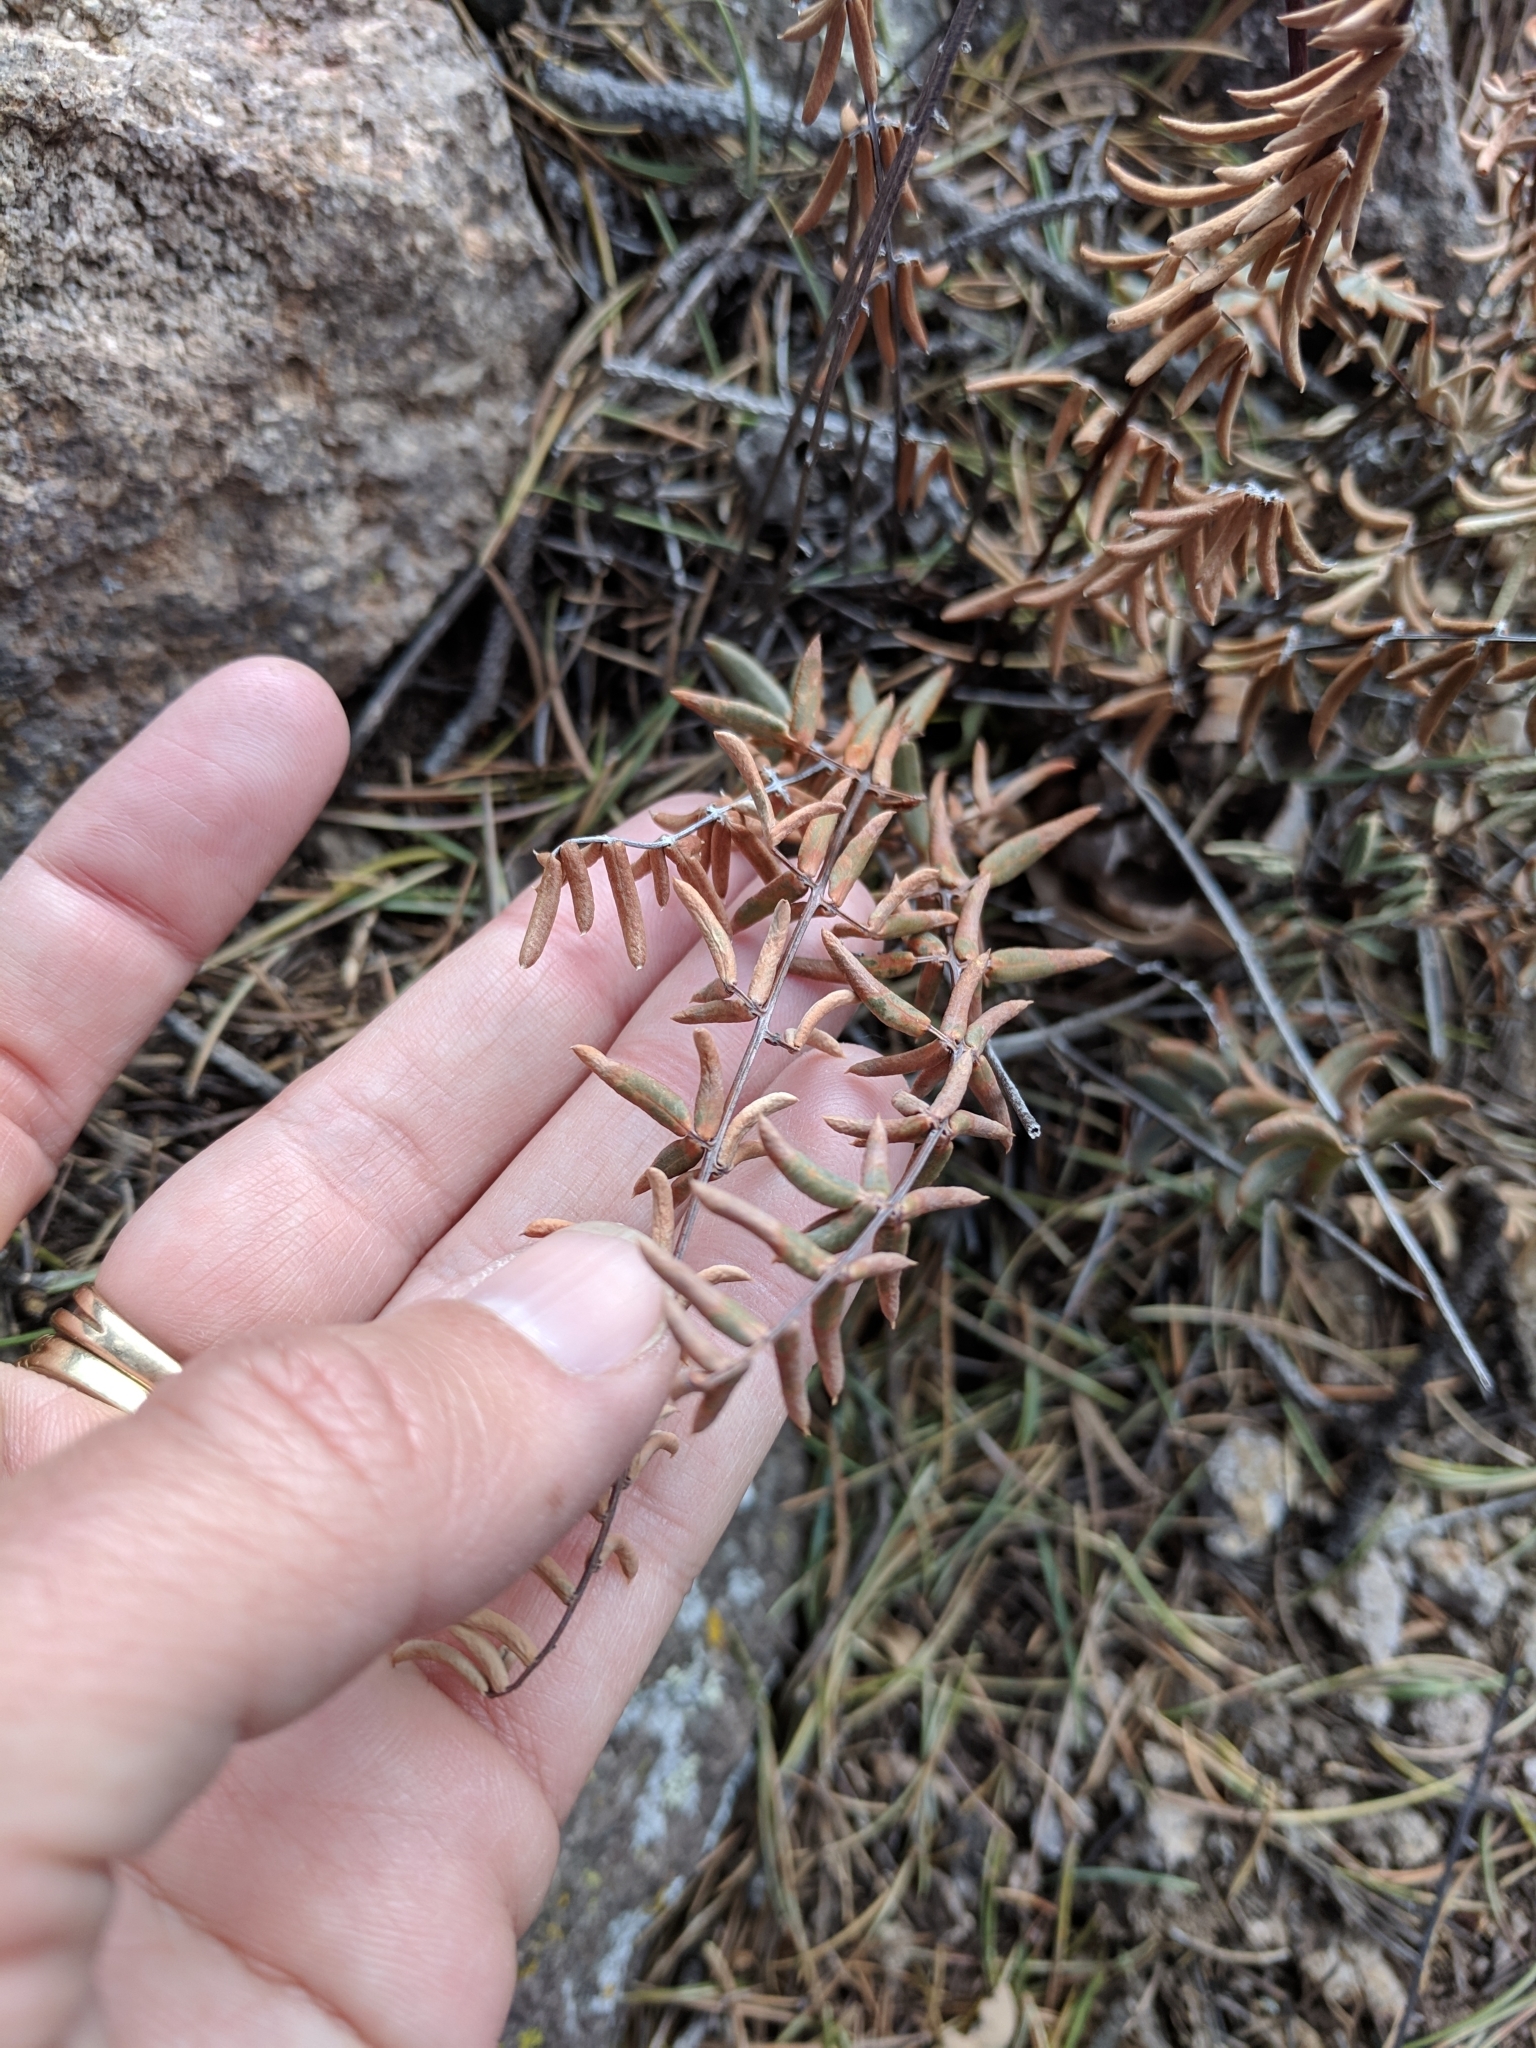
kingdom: Plantae
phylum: Tracheophyta
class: Polypodiopsida
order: Polypodiales
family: Pteridaceae
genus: Pellaea
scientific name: Pellaea wrightiana
